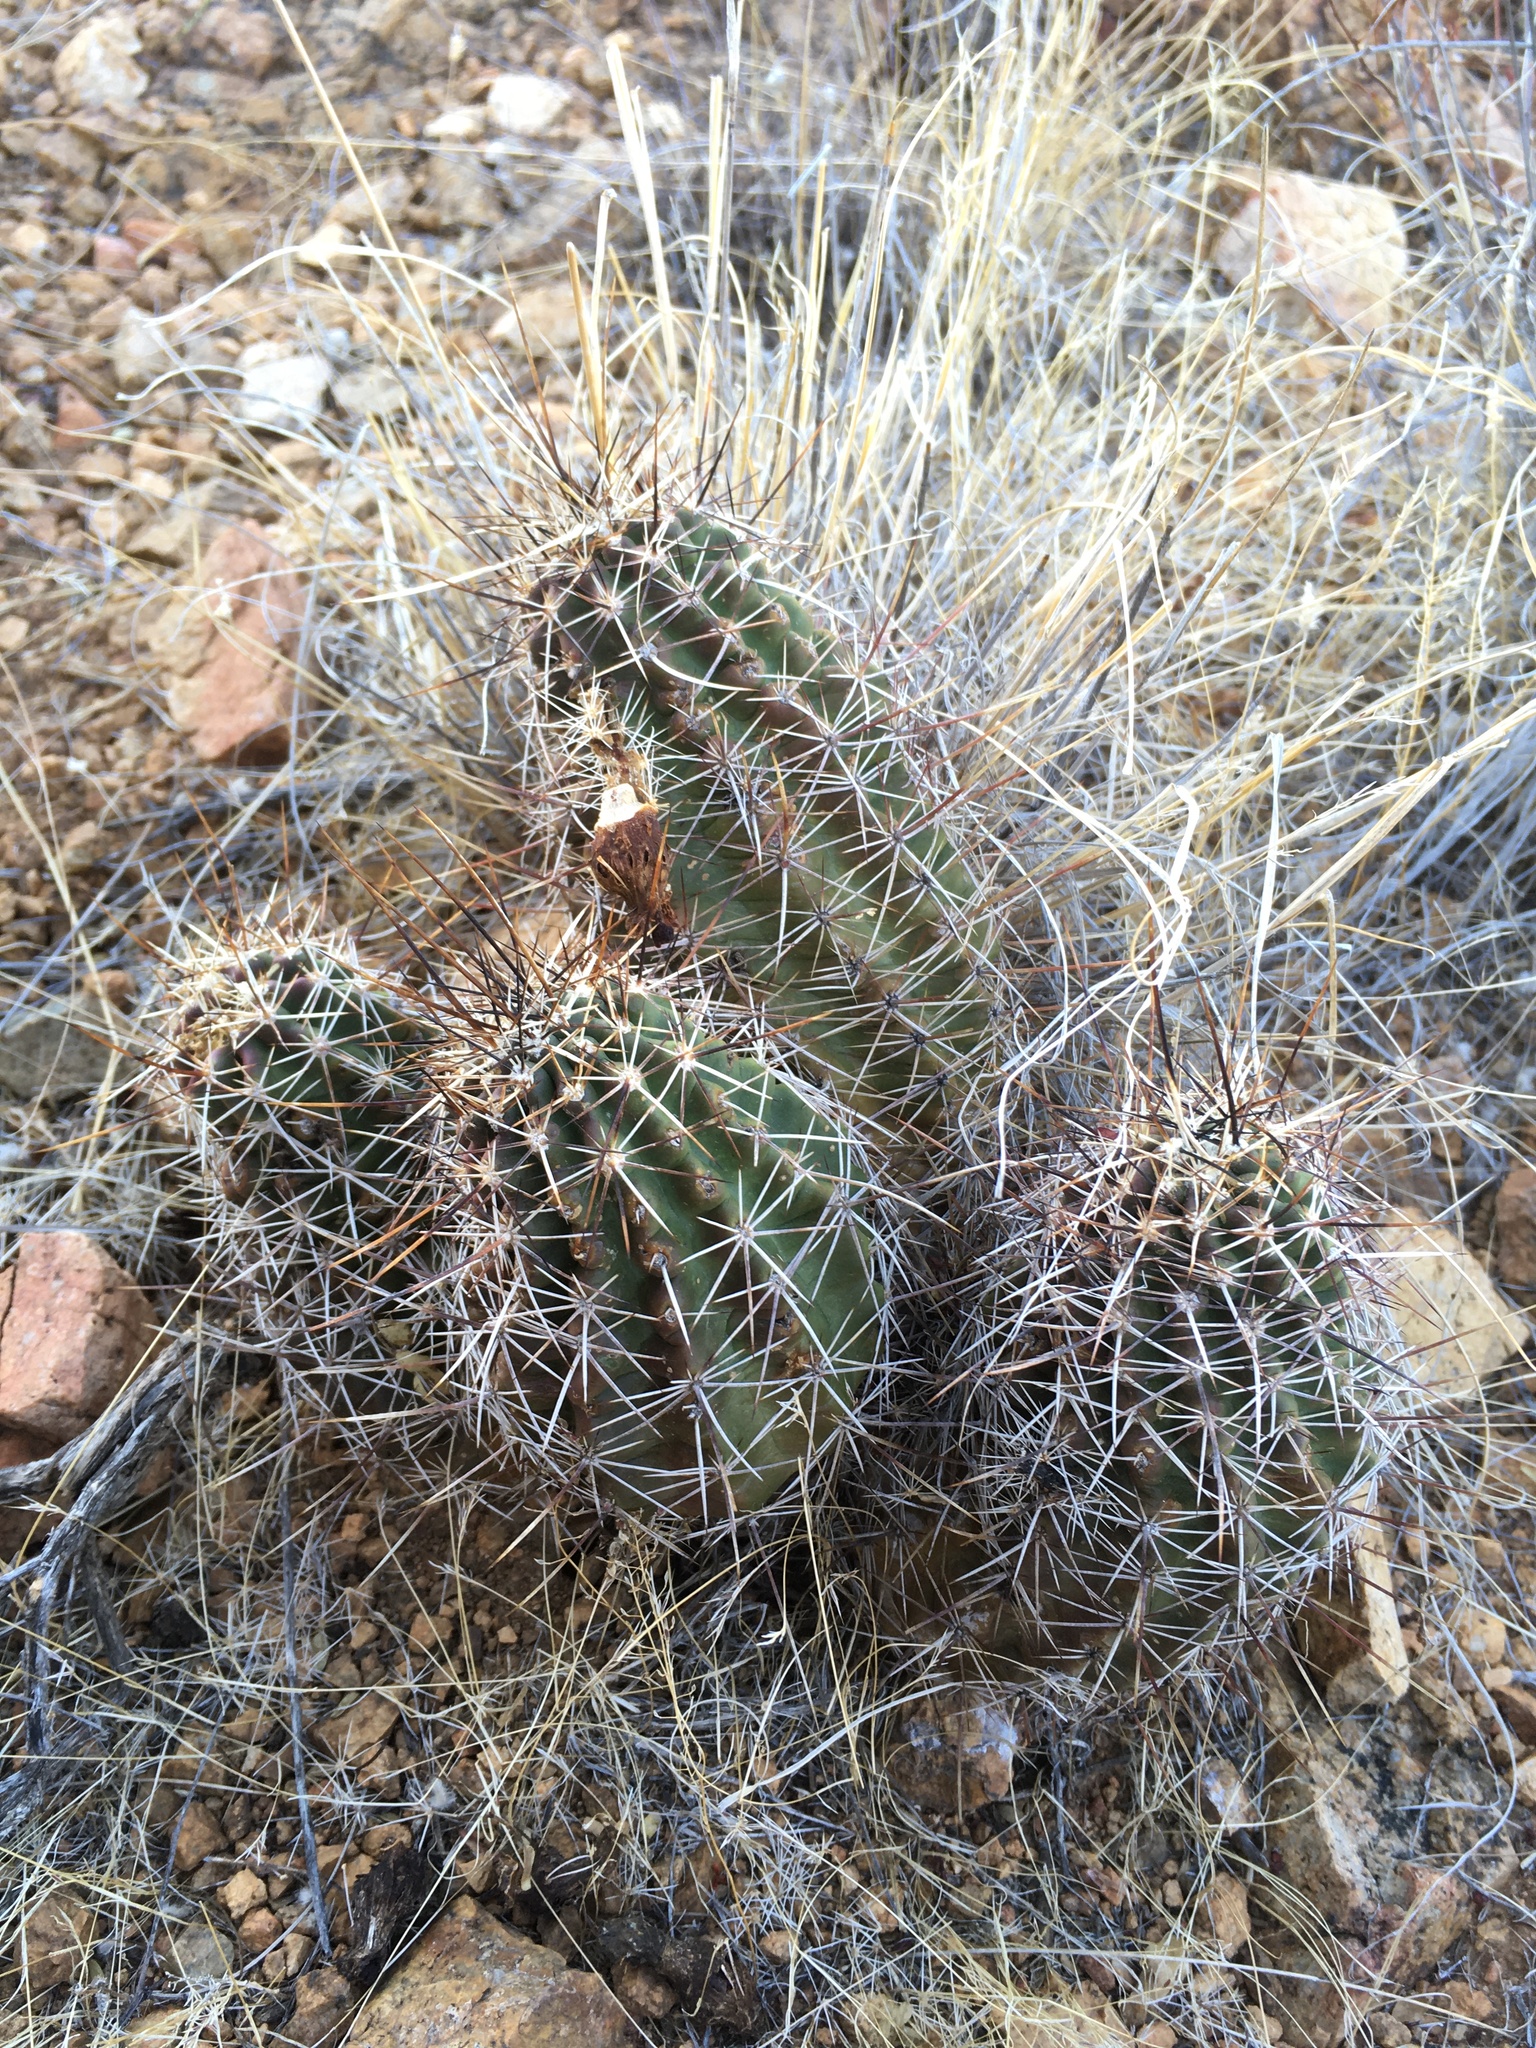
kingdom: Plantae
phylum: Tracheophyta
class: Magnoliopsida
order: Caryophyllales
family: Cactaceae
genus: Echinocereus
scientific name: Echinocereus fendleri
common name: Fendler's hedgehog cactus
